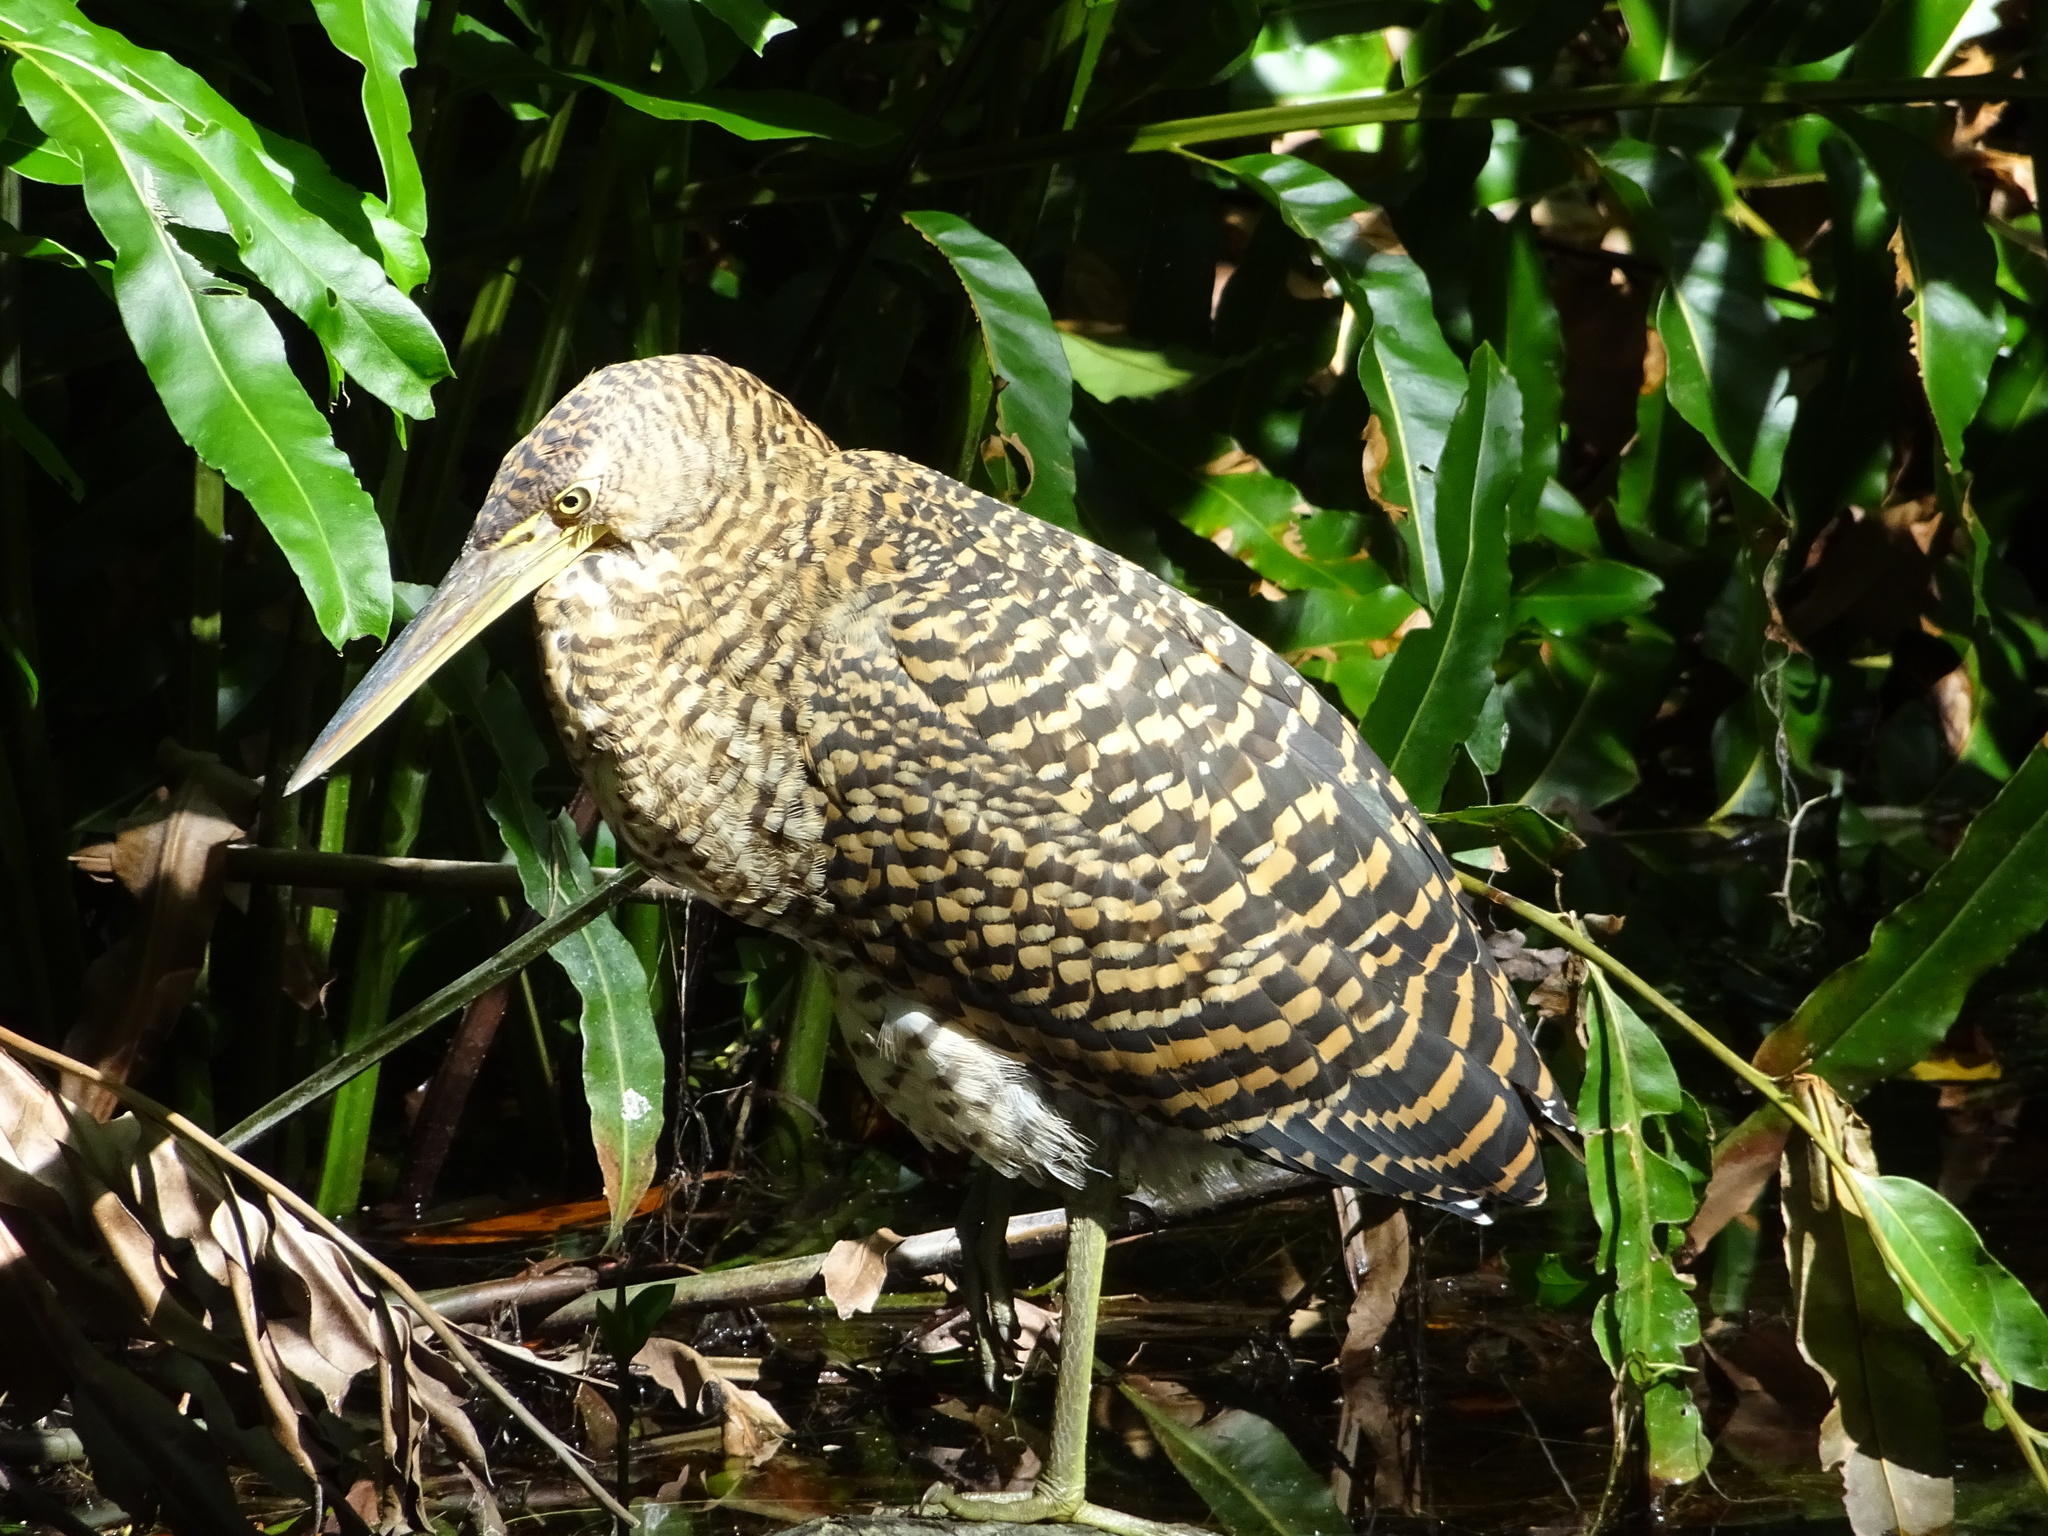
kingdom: Animalia
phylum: Chordata
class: Aves
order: Pelecaniformes
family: Ardeidae
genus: Tigrisoma
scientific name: Tigrisoma mexicanum
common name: Bare-throated tiger-heron
